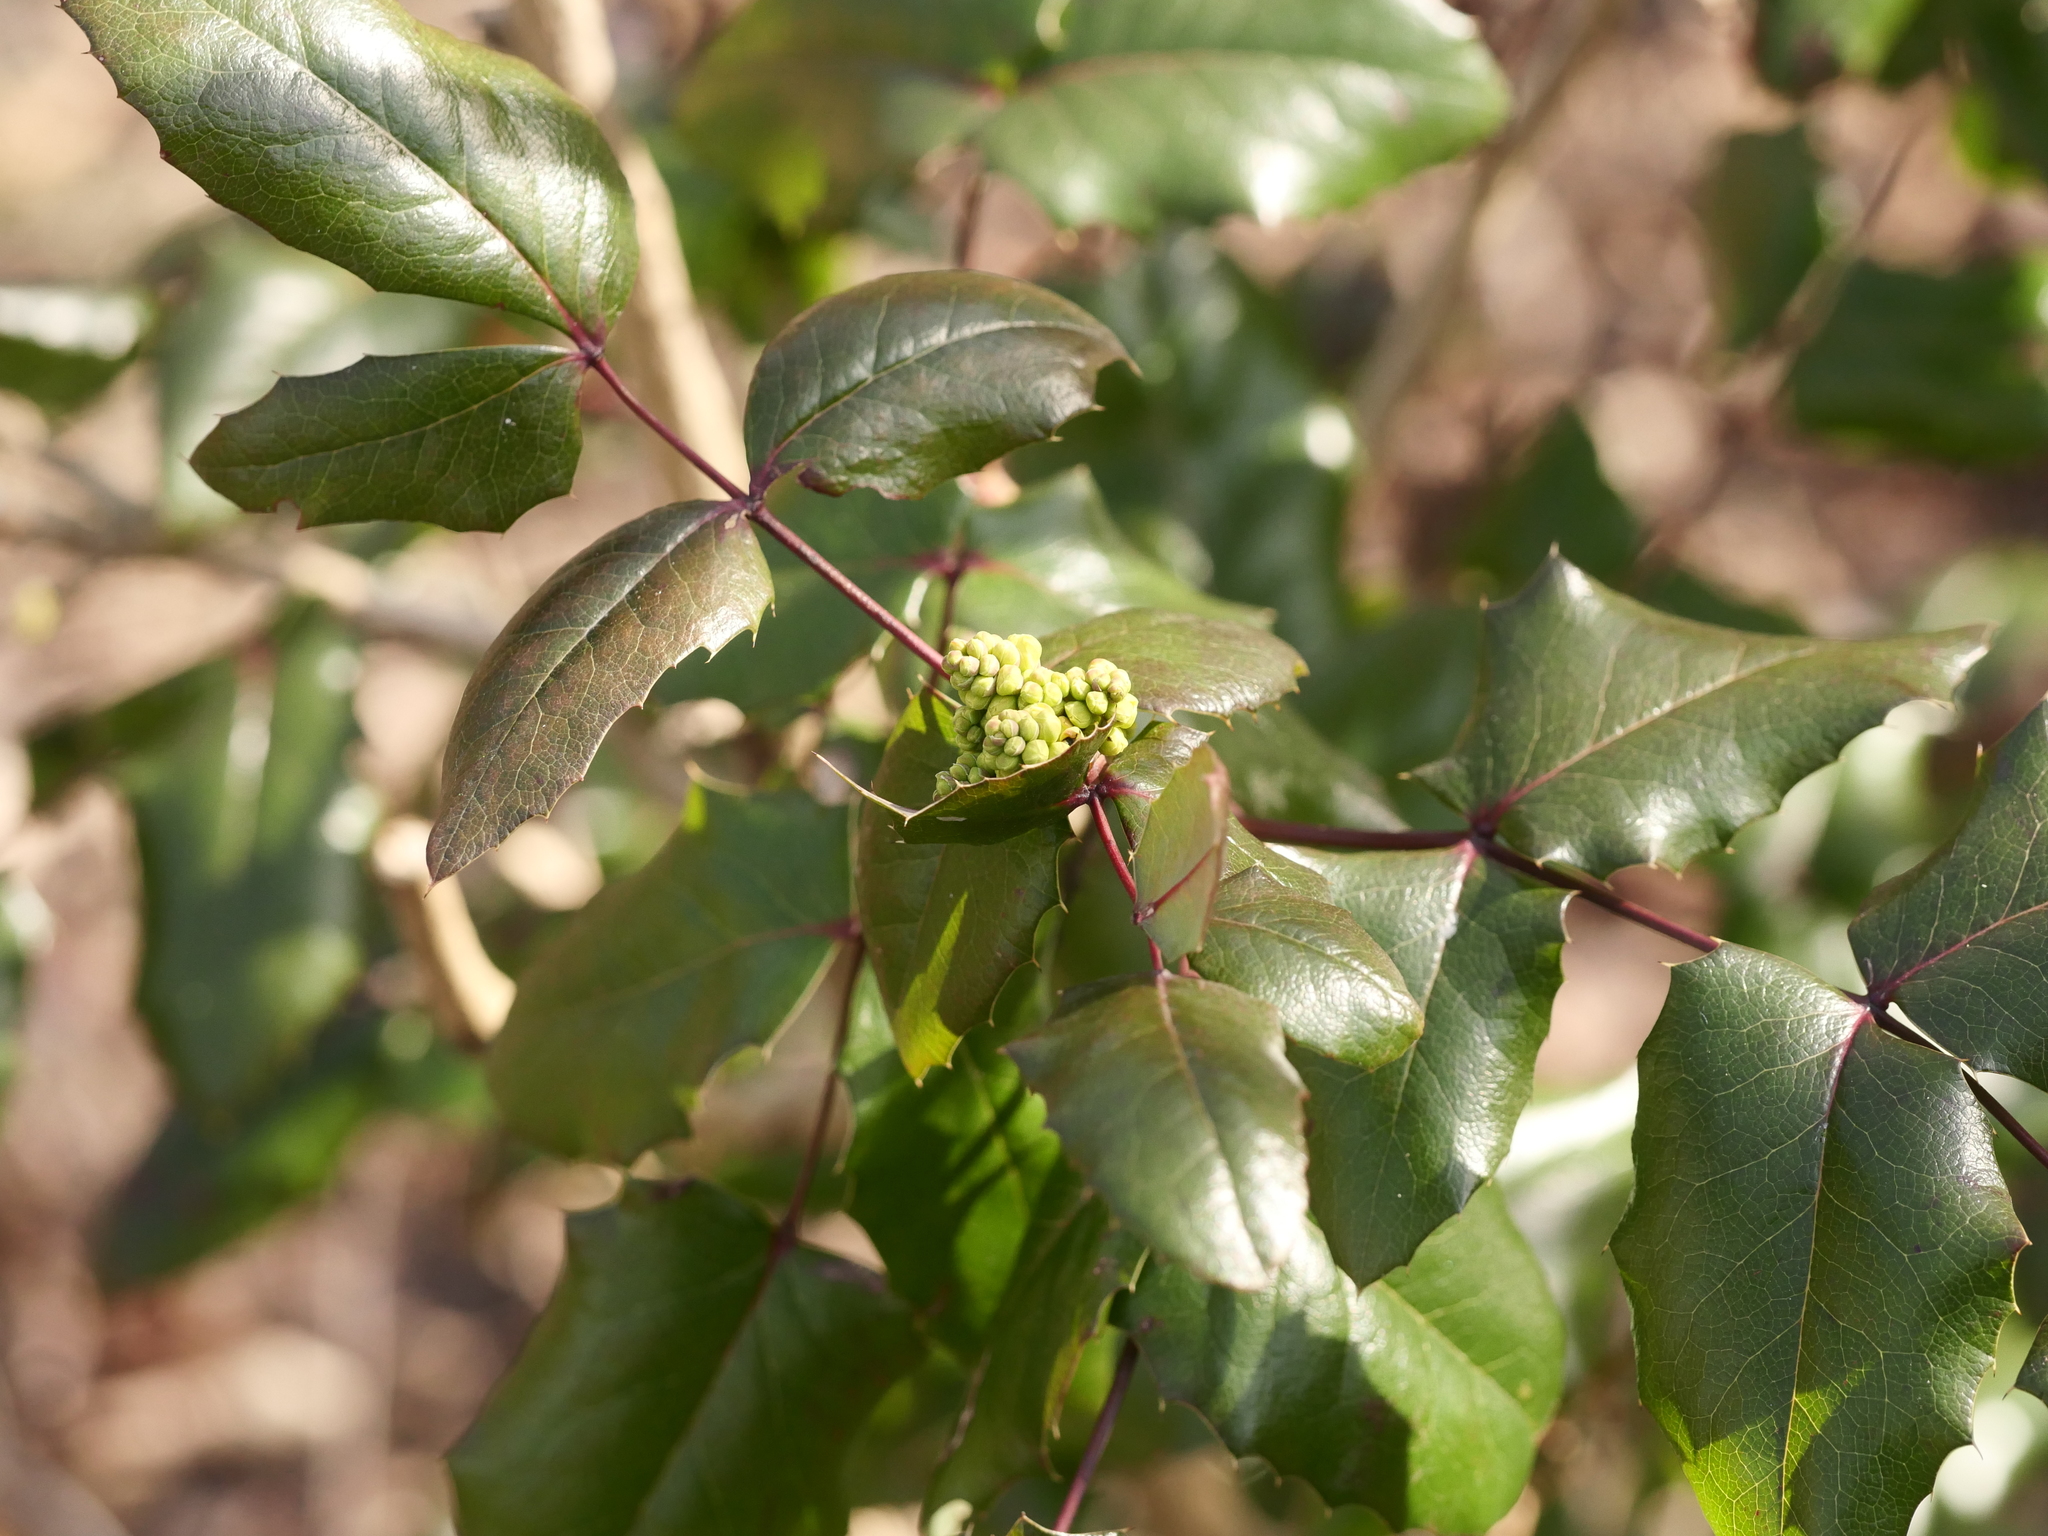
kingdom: Plantae
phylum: Tracheophyta
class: Magnoliopsida
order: Ranunculales
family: Berberidaceae
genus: Mahonia
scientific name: Mahonia aquifolium
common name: Oregon-grape
